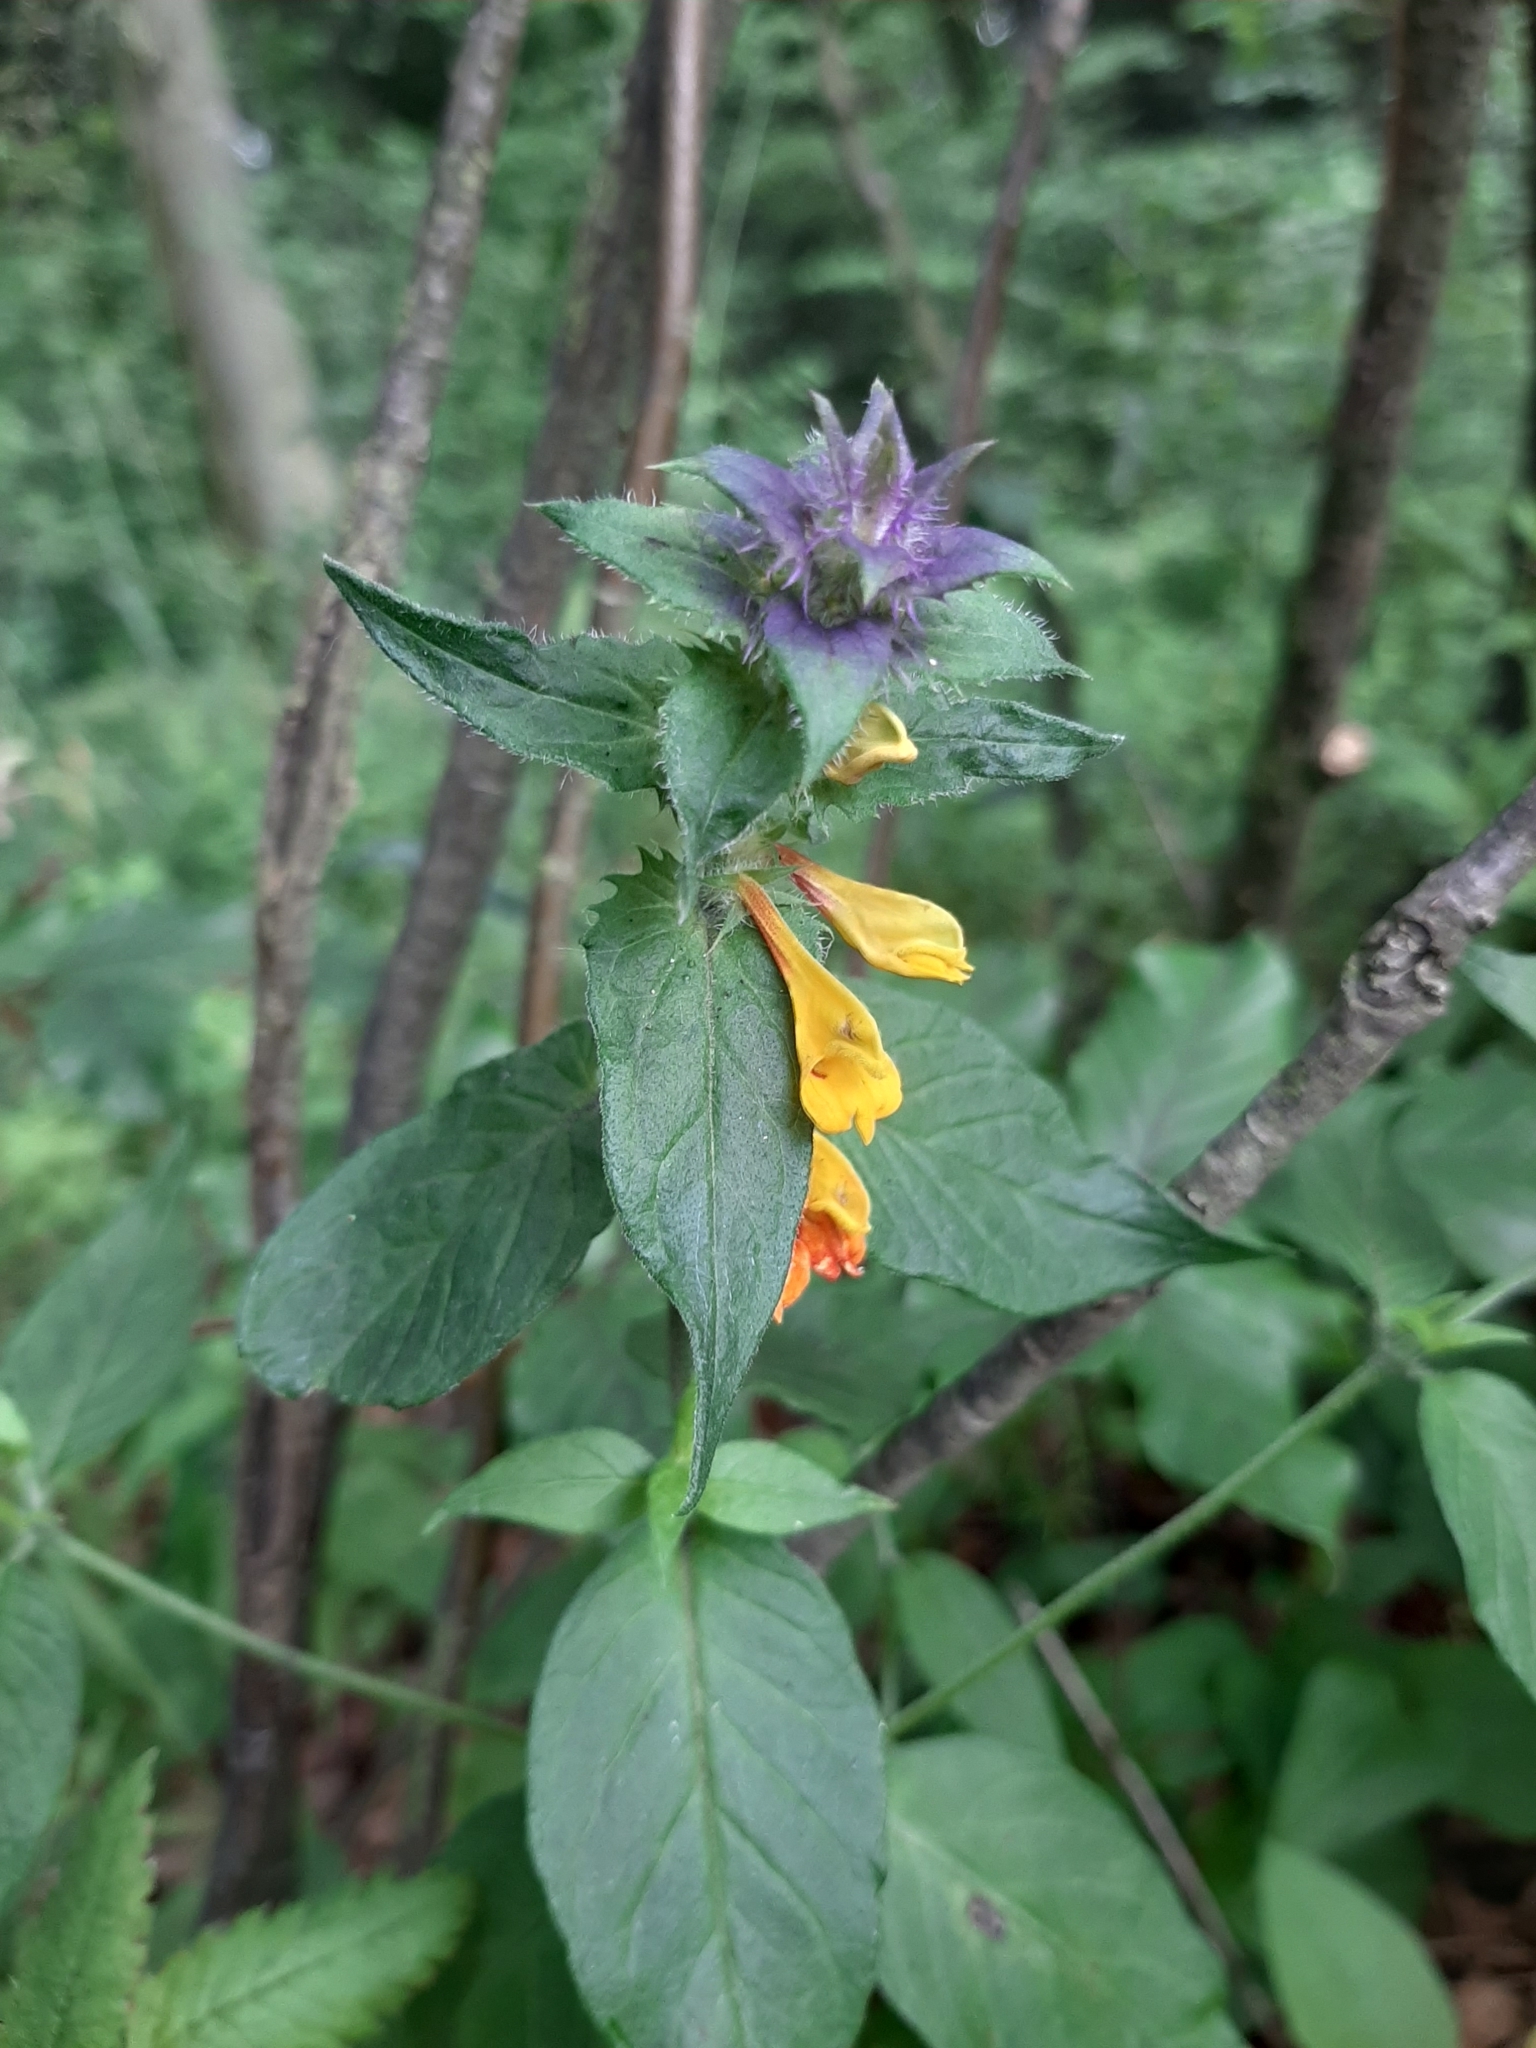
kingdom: Plantae
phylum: Tracheophyta
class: Magnoliopsida
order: Lamiales
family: Orobanchaceae
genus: Melampyrum
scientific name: Melampyrum nemorosum
